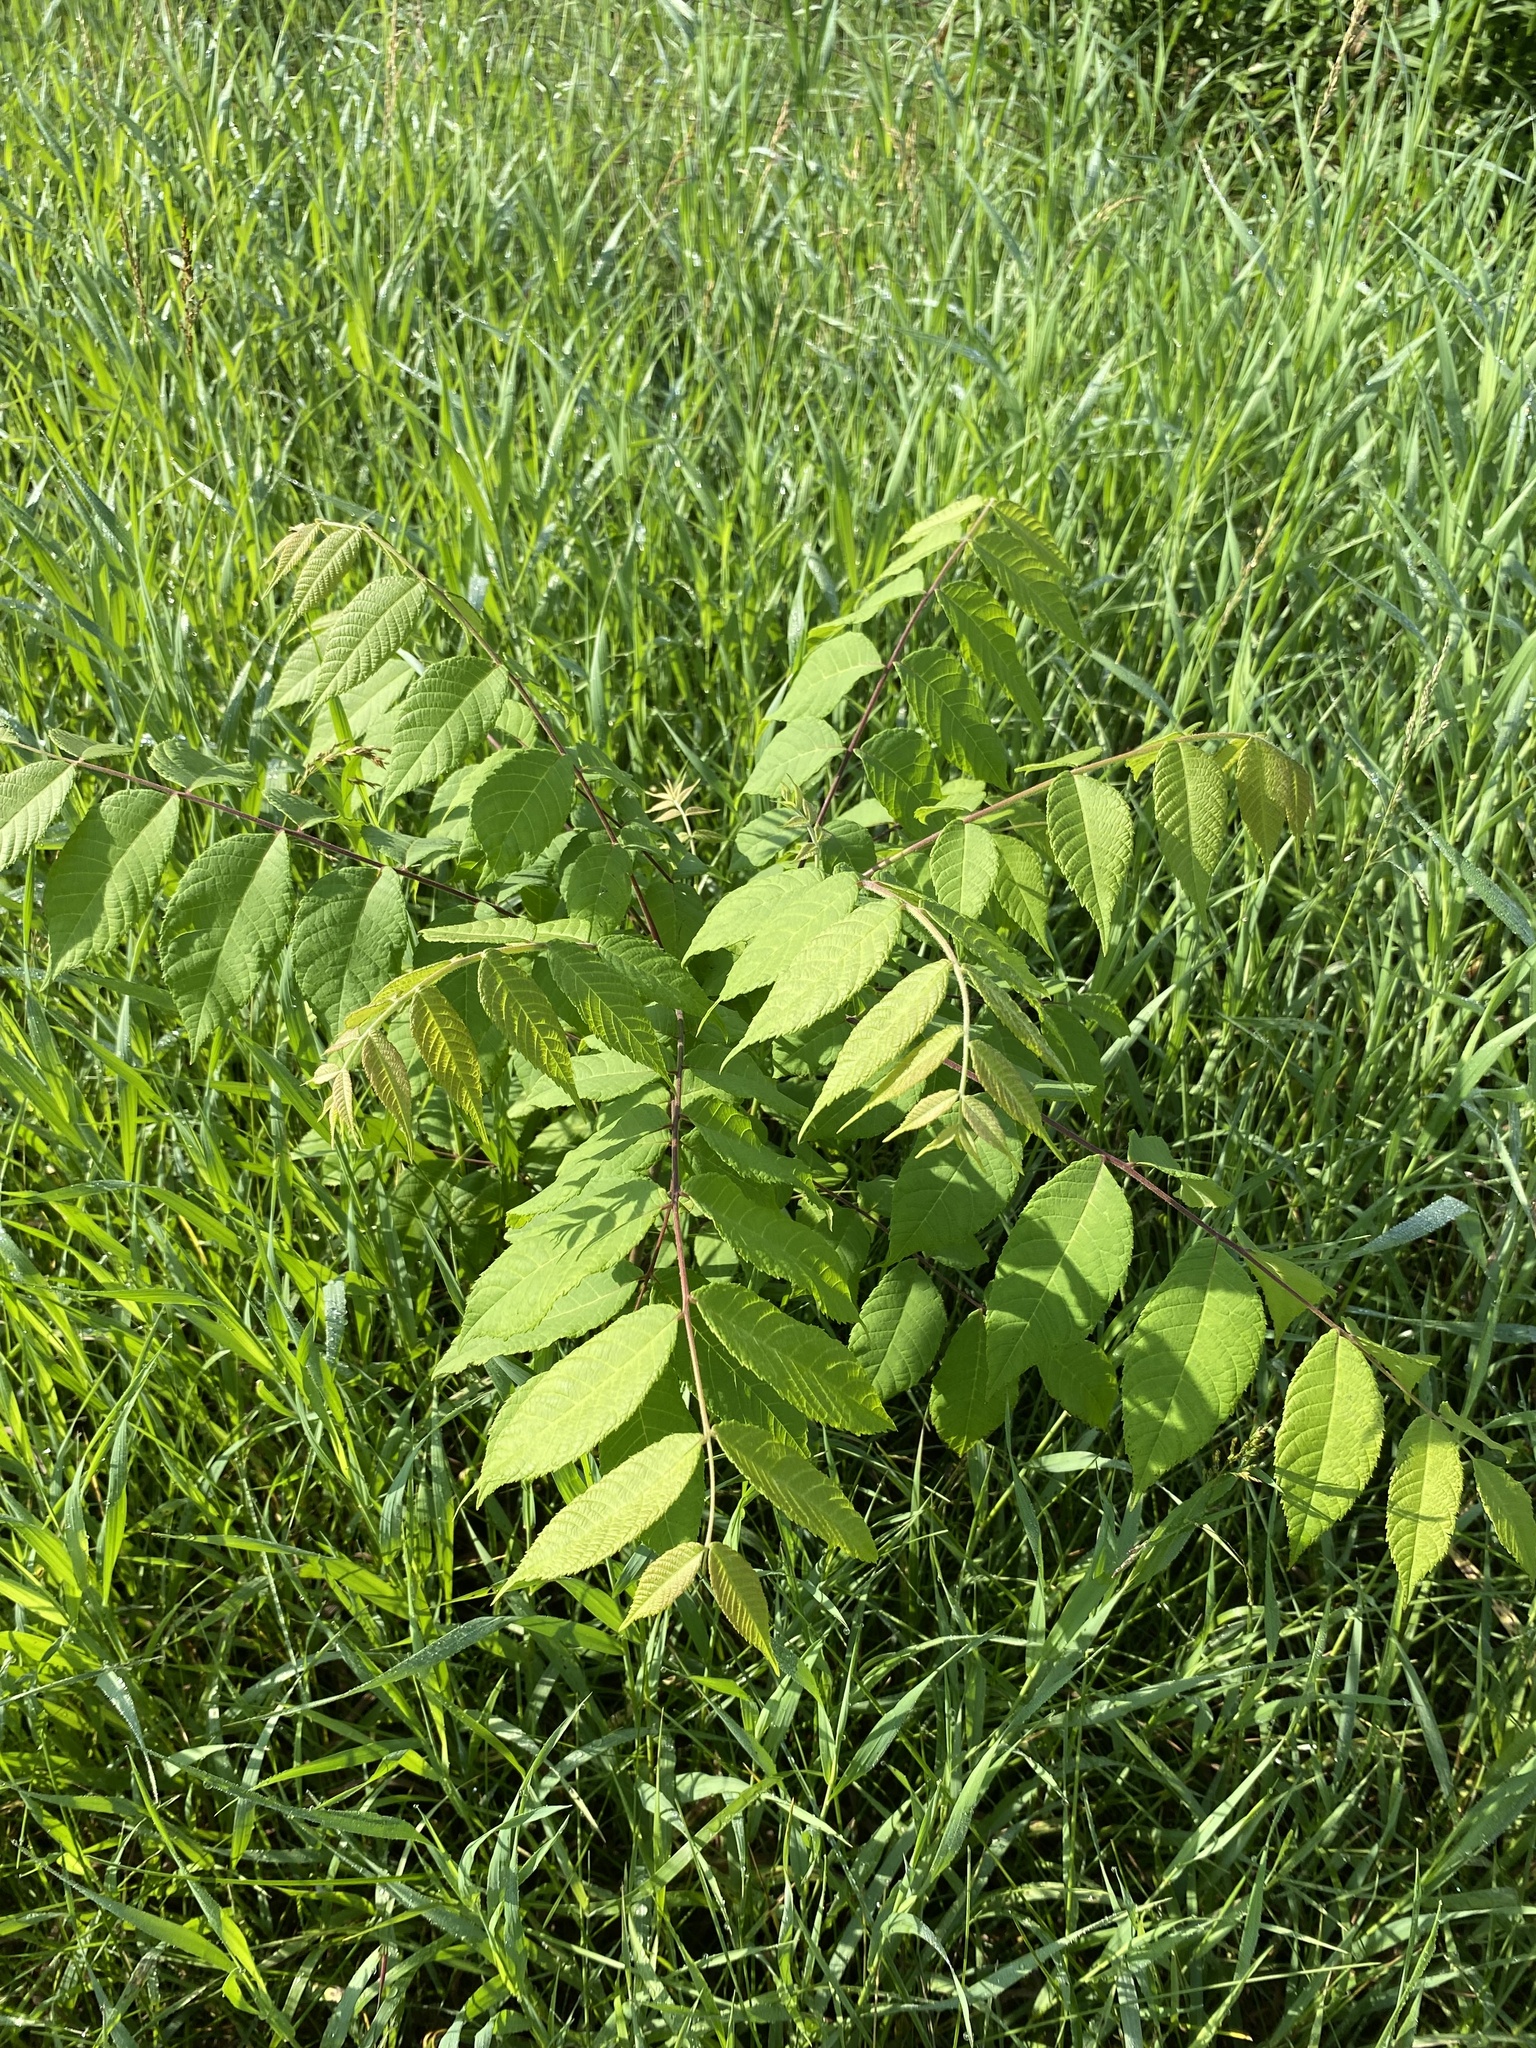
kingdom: Plantae
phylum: Tracheophyta
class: Magnoliopsida
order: Fagales
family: Juglandaceae
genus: Juglans
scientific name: Juglans nigra
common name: Black walnut
